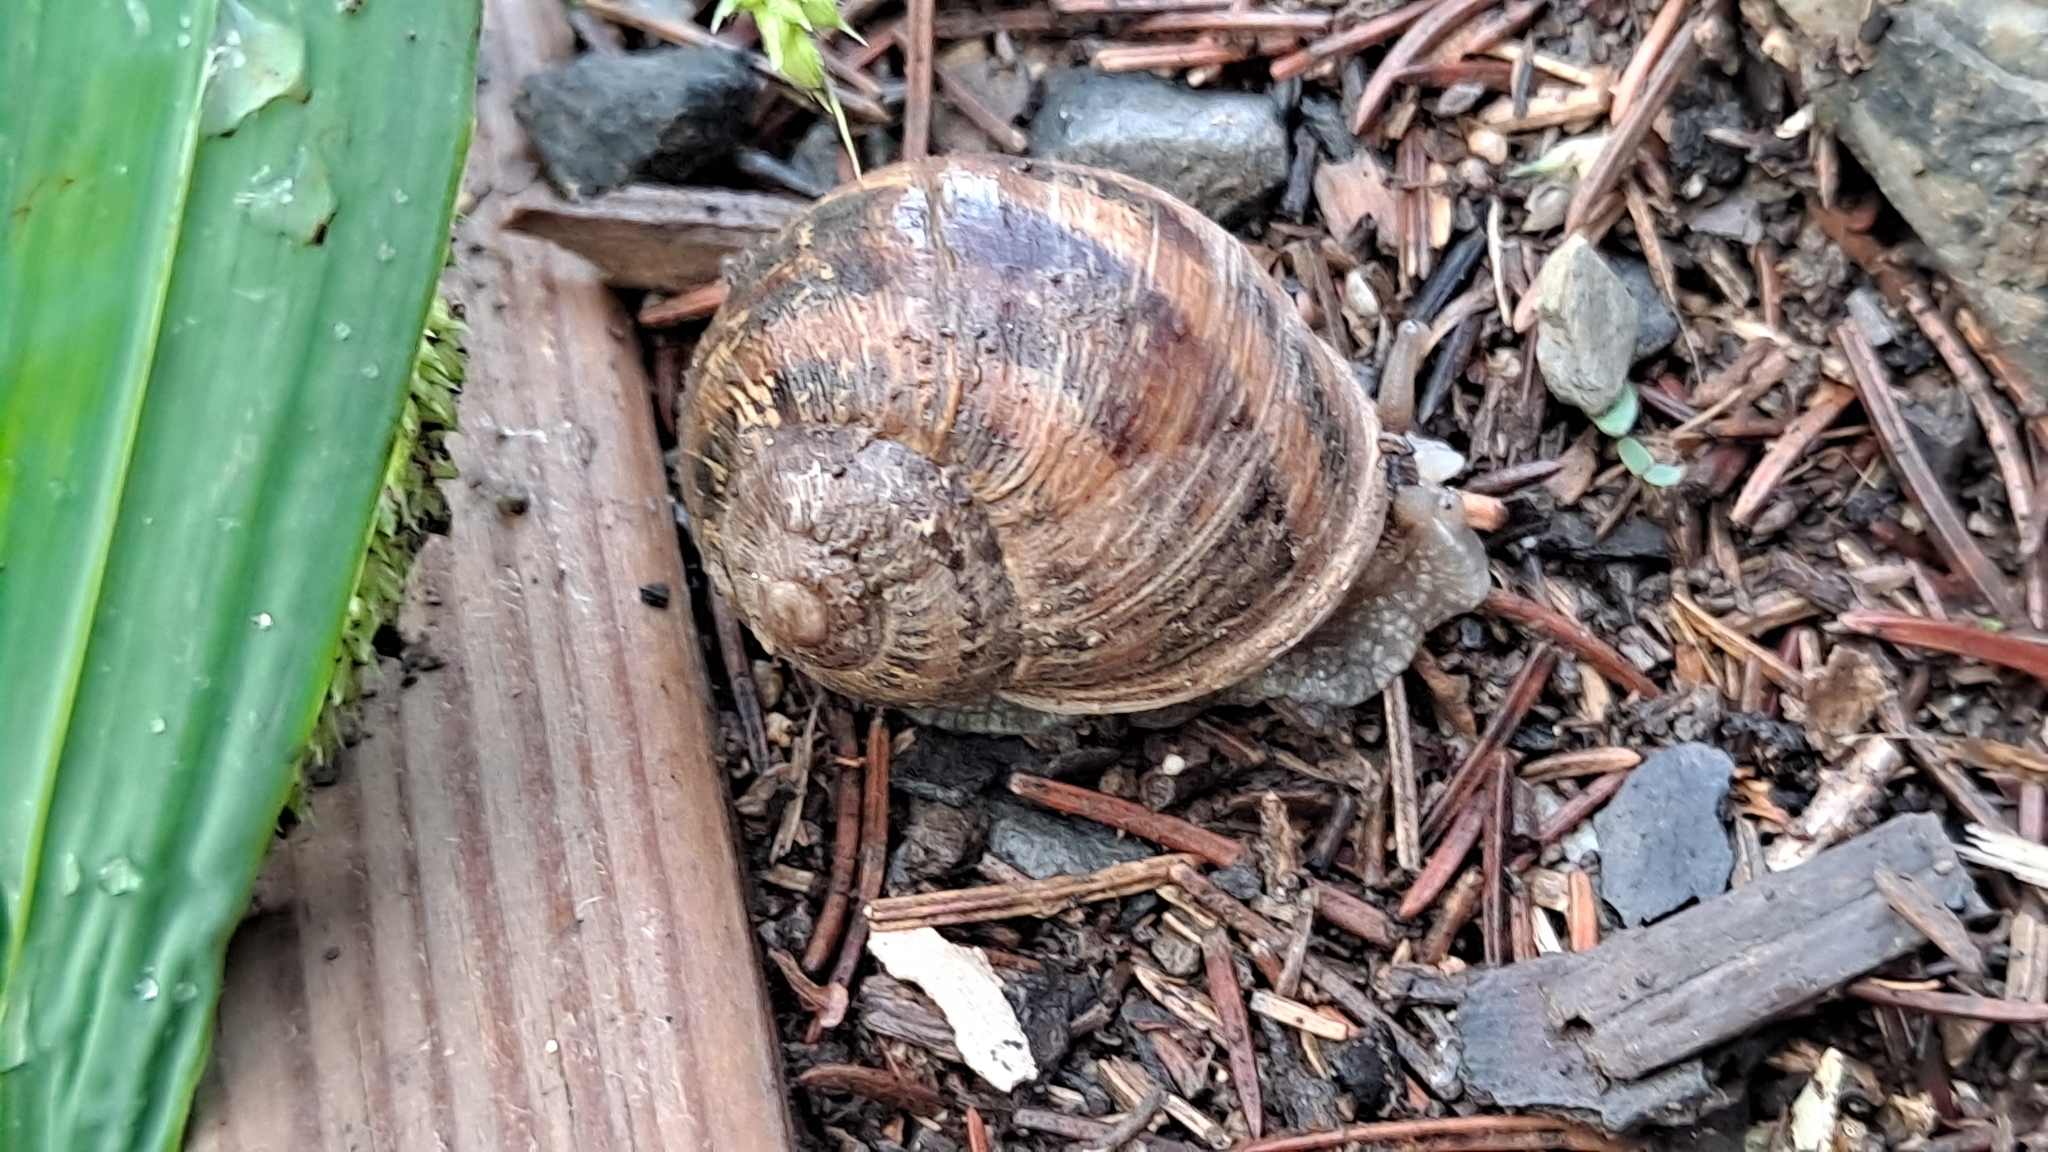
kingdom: Animalia
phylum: Mollusca
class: Gastropoda
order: Stylommatophora
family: Helicidae
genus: Cornu
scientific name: Cornu aspersum
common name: Brown garden snail
